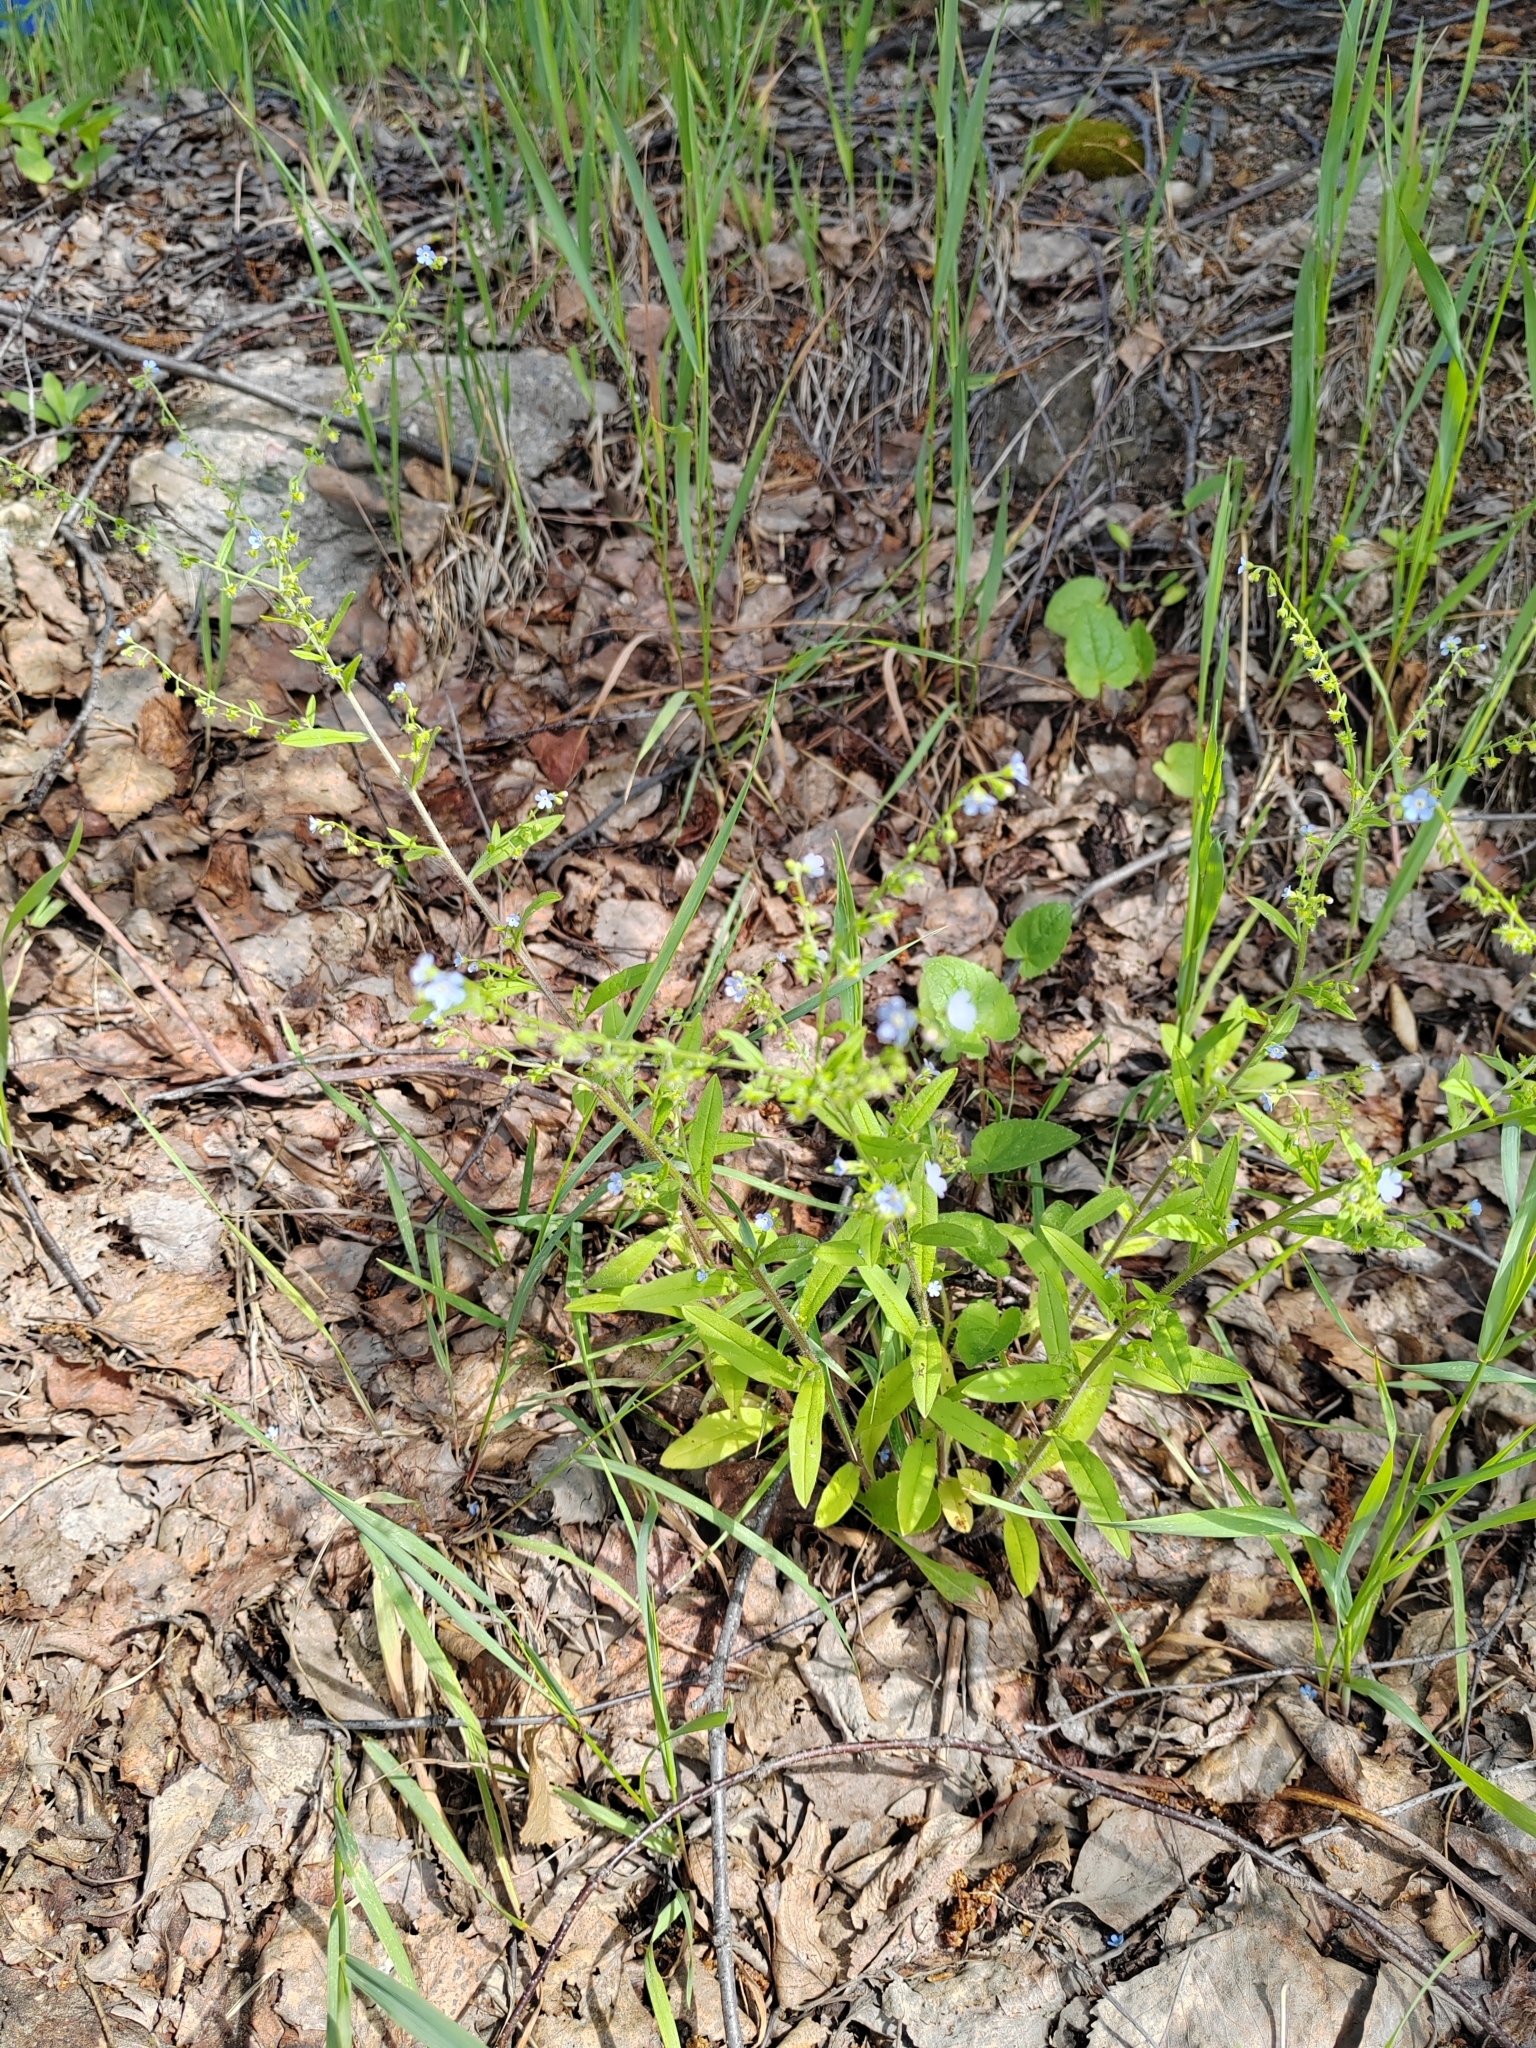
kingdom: Plantae
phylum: Tracheophyta
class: Magnoliopsida
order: Boraginales
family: Boraginaceae
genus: Hackelia
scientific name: Hackelia deflexa
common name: Nodding stickseed
